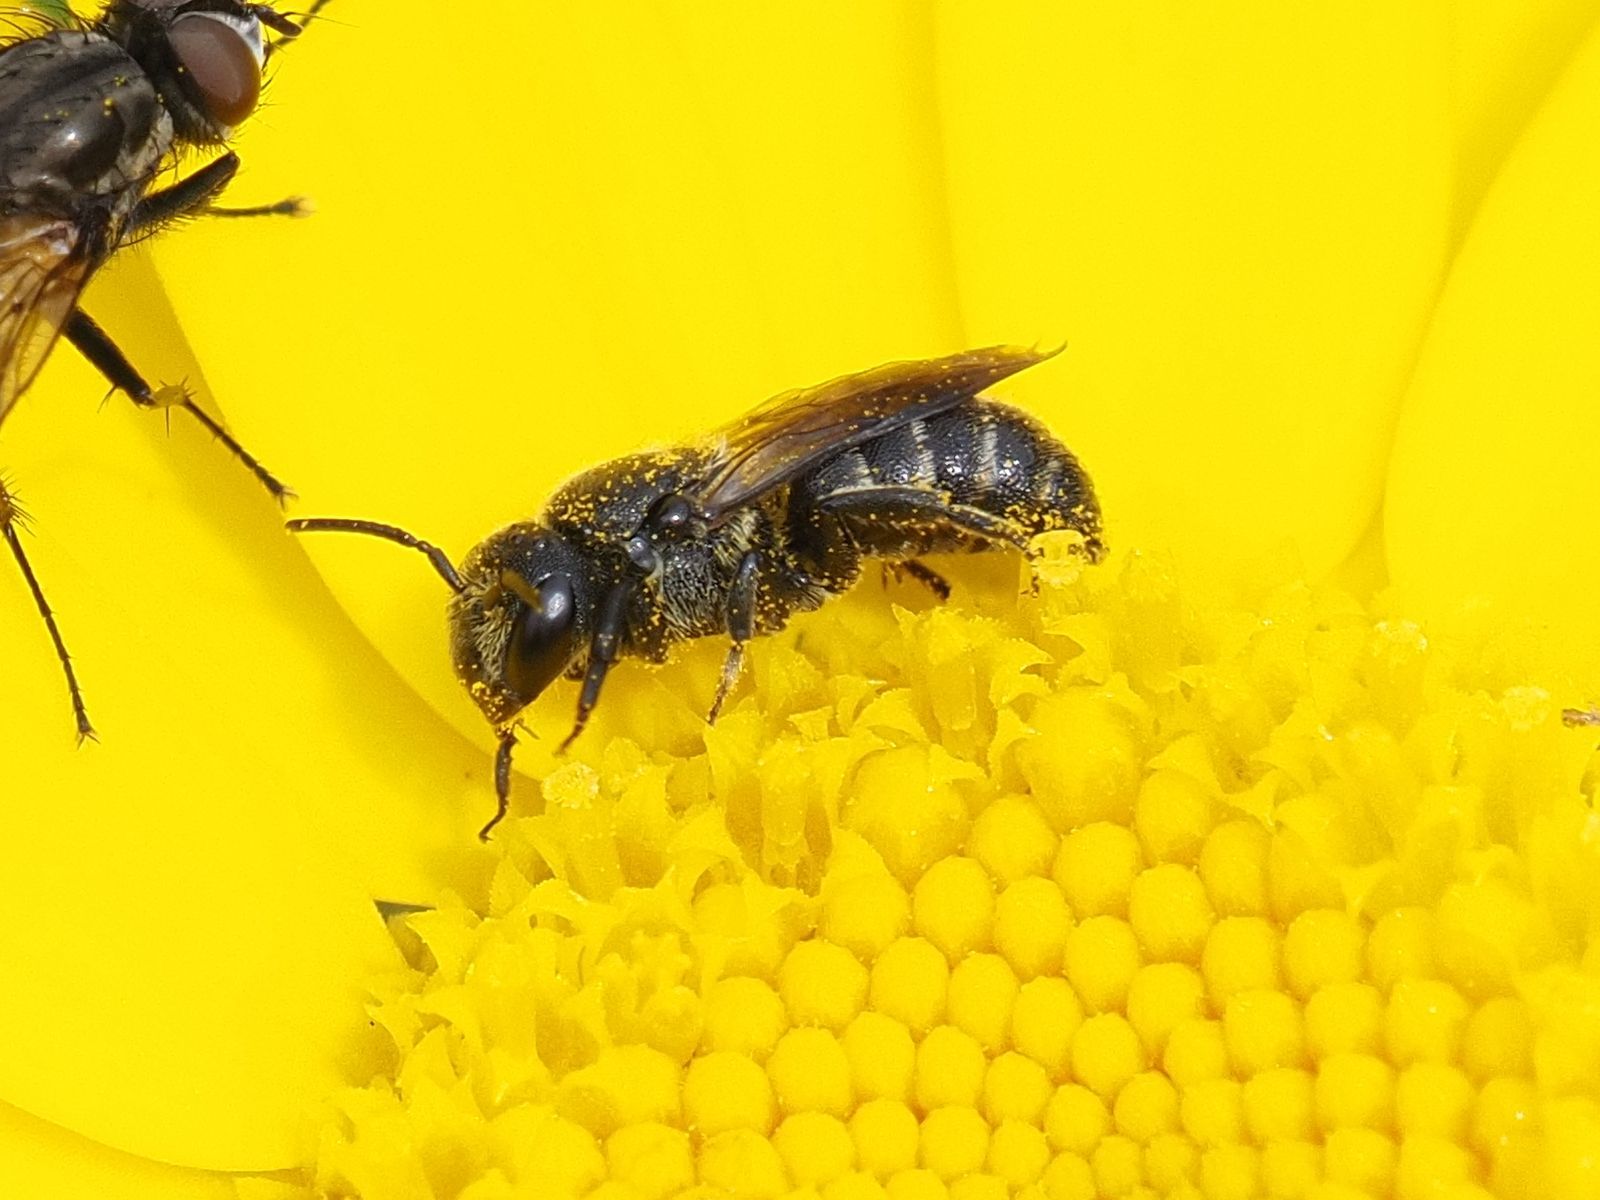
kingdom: Animalia
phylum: Arthropoda
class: Insecta
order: Hymenoptera
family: Megachilidae
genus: Stelis
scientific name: Stelis breviuscula
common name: Little dark bee
